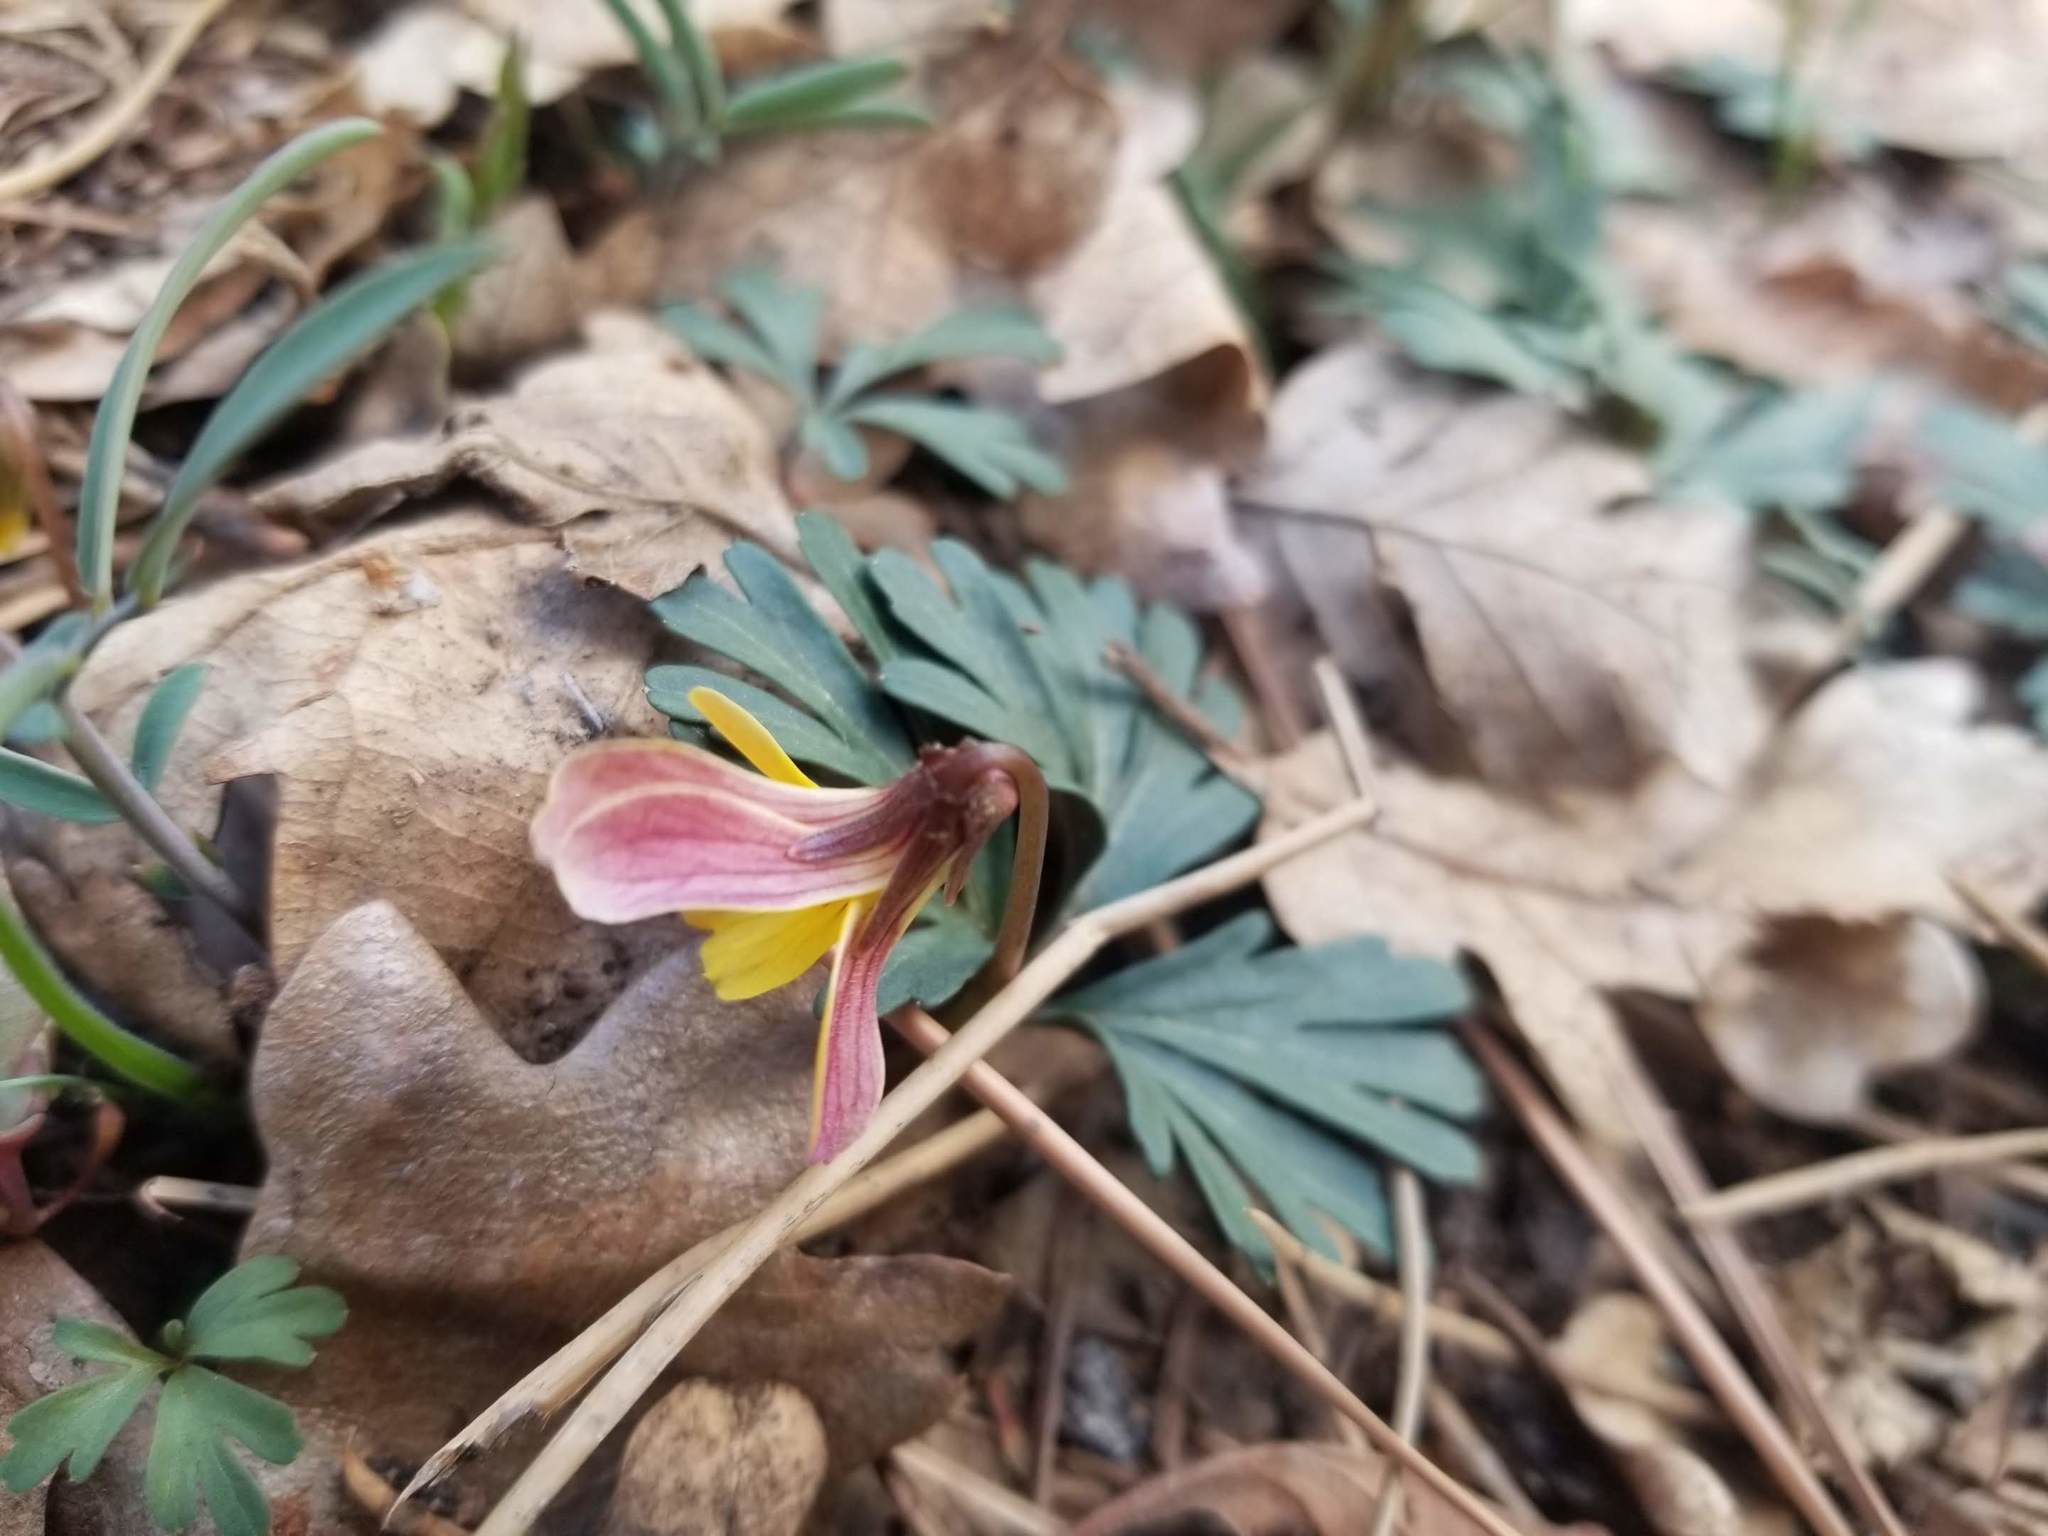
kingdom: Plantae
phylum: Tracheophyta
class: Magnoliopsida
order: Malpighiales
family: Violaceae
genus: Viola
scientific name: Viola sheltonii
